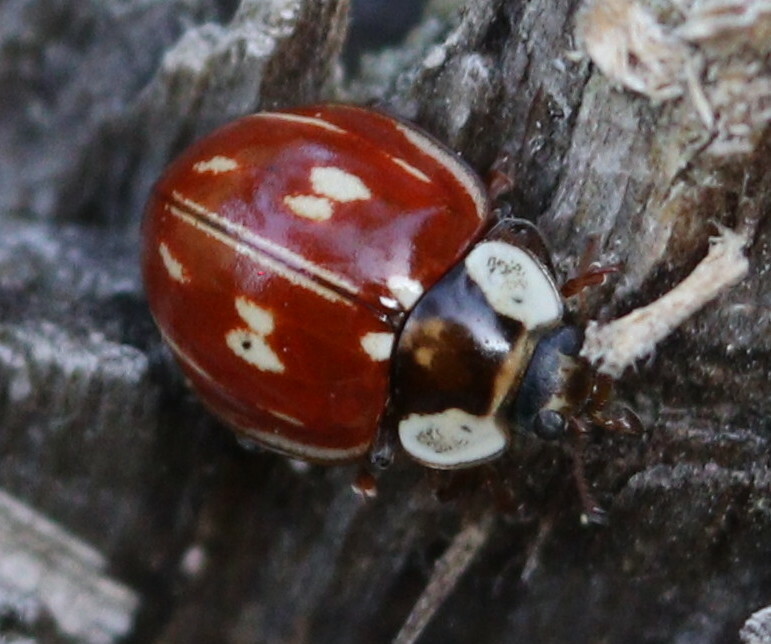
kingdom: Animalia
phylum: Arthropoda
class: Insecta
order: Coleoptera
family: Coccinellidae
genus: Myzia
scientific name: Myzia oblongoguttata
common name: Striped ladybird
